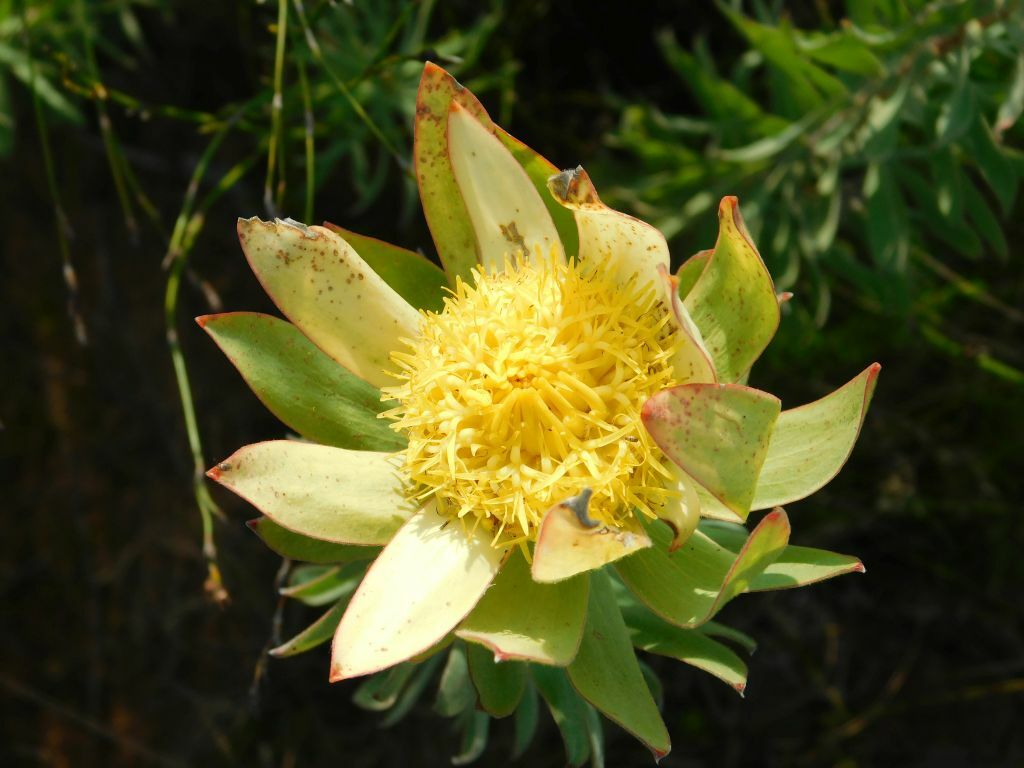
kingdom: Plantae
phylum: Tracheophyta
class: Magnoliopsida
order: Proteales
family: Proteaceae
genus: Leucadendron
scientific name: Leucadendron burchellii
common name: Riviersonderend conebush
